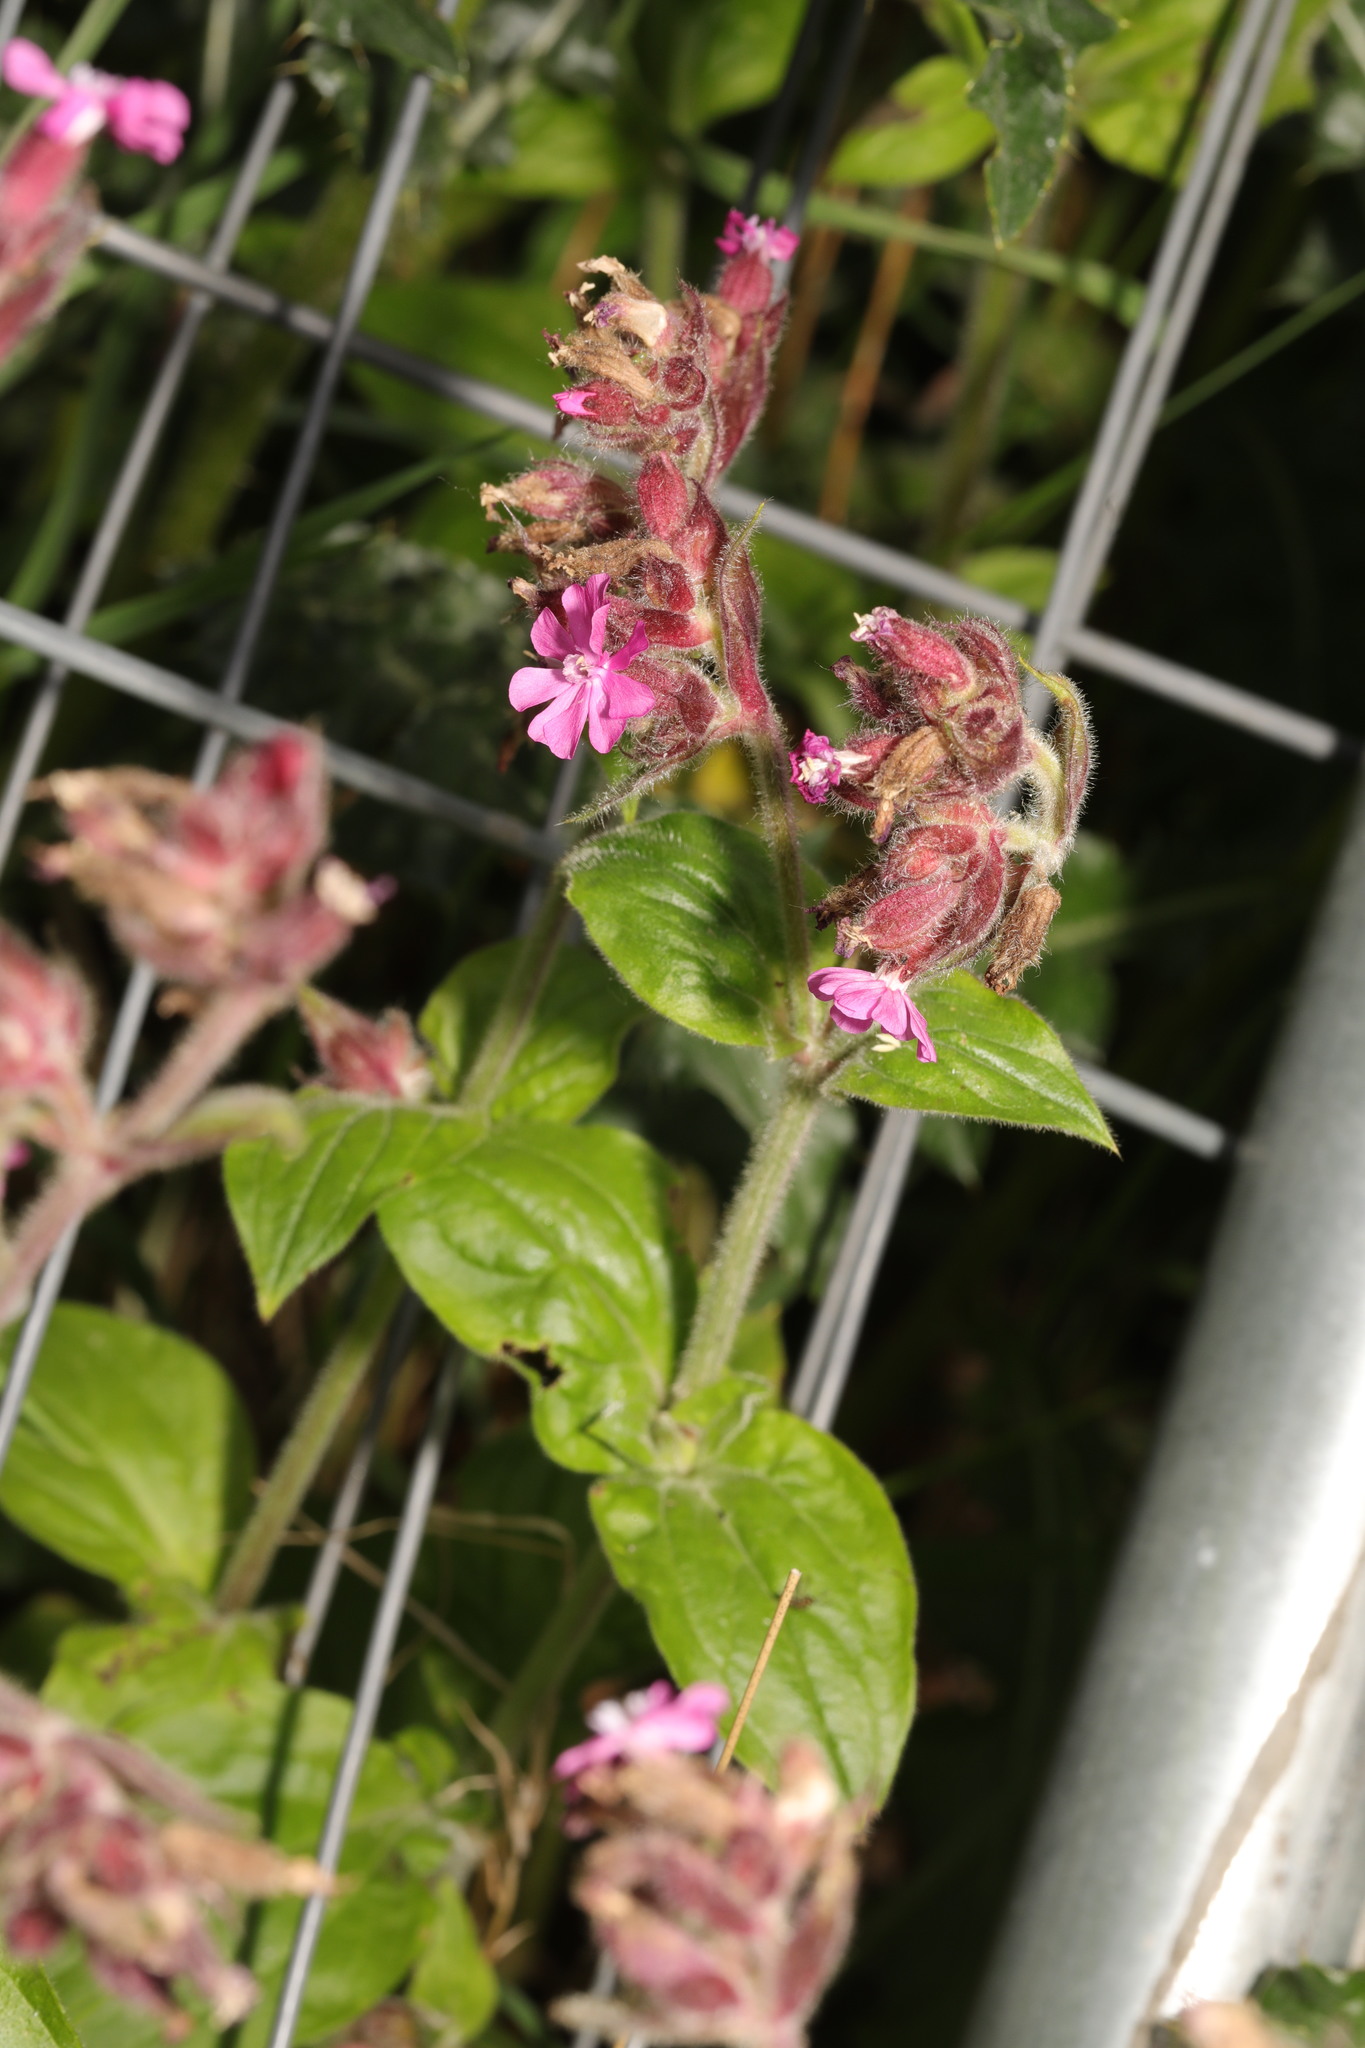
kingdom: Plantae
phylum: Tracheophyta
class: Magnoliopsida
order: Caryophyllales
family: Caryophyllaceae
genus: Silene
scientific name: Silene dioica
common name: Red campion
